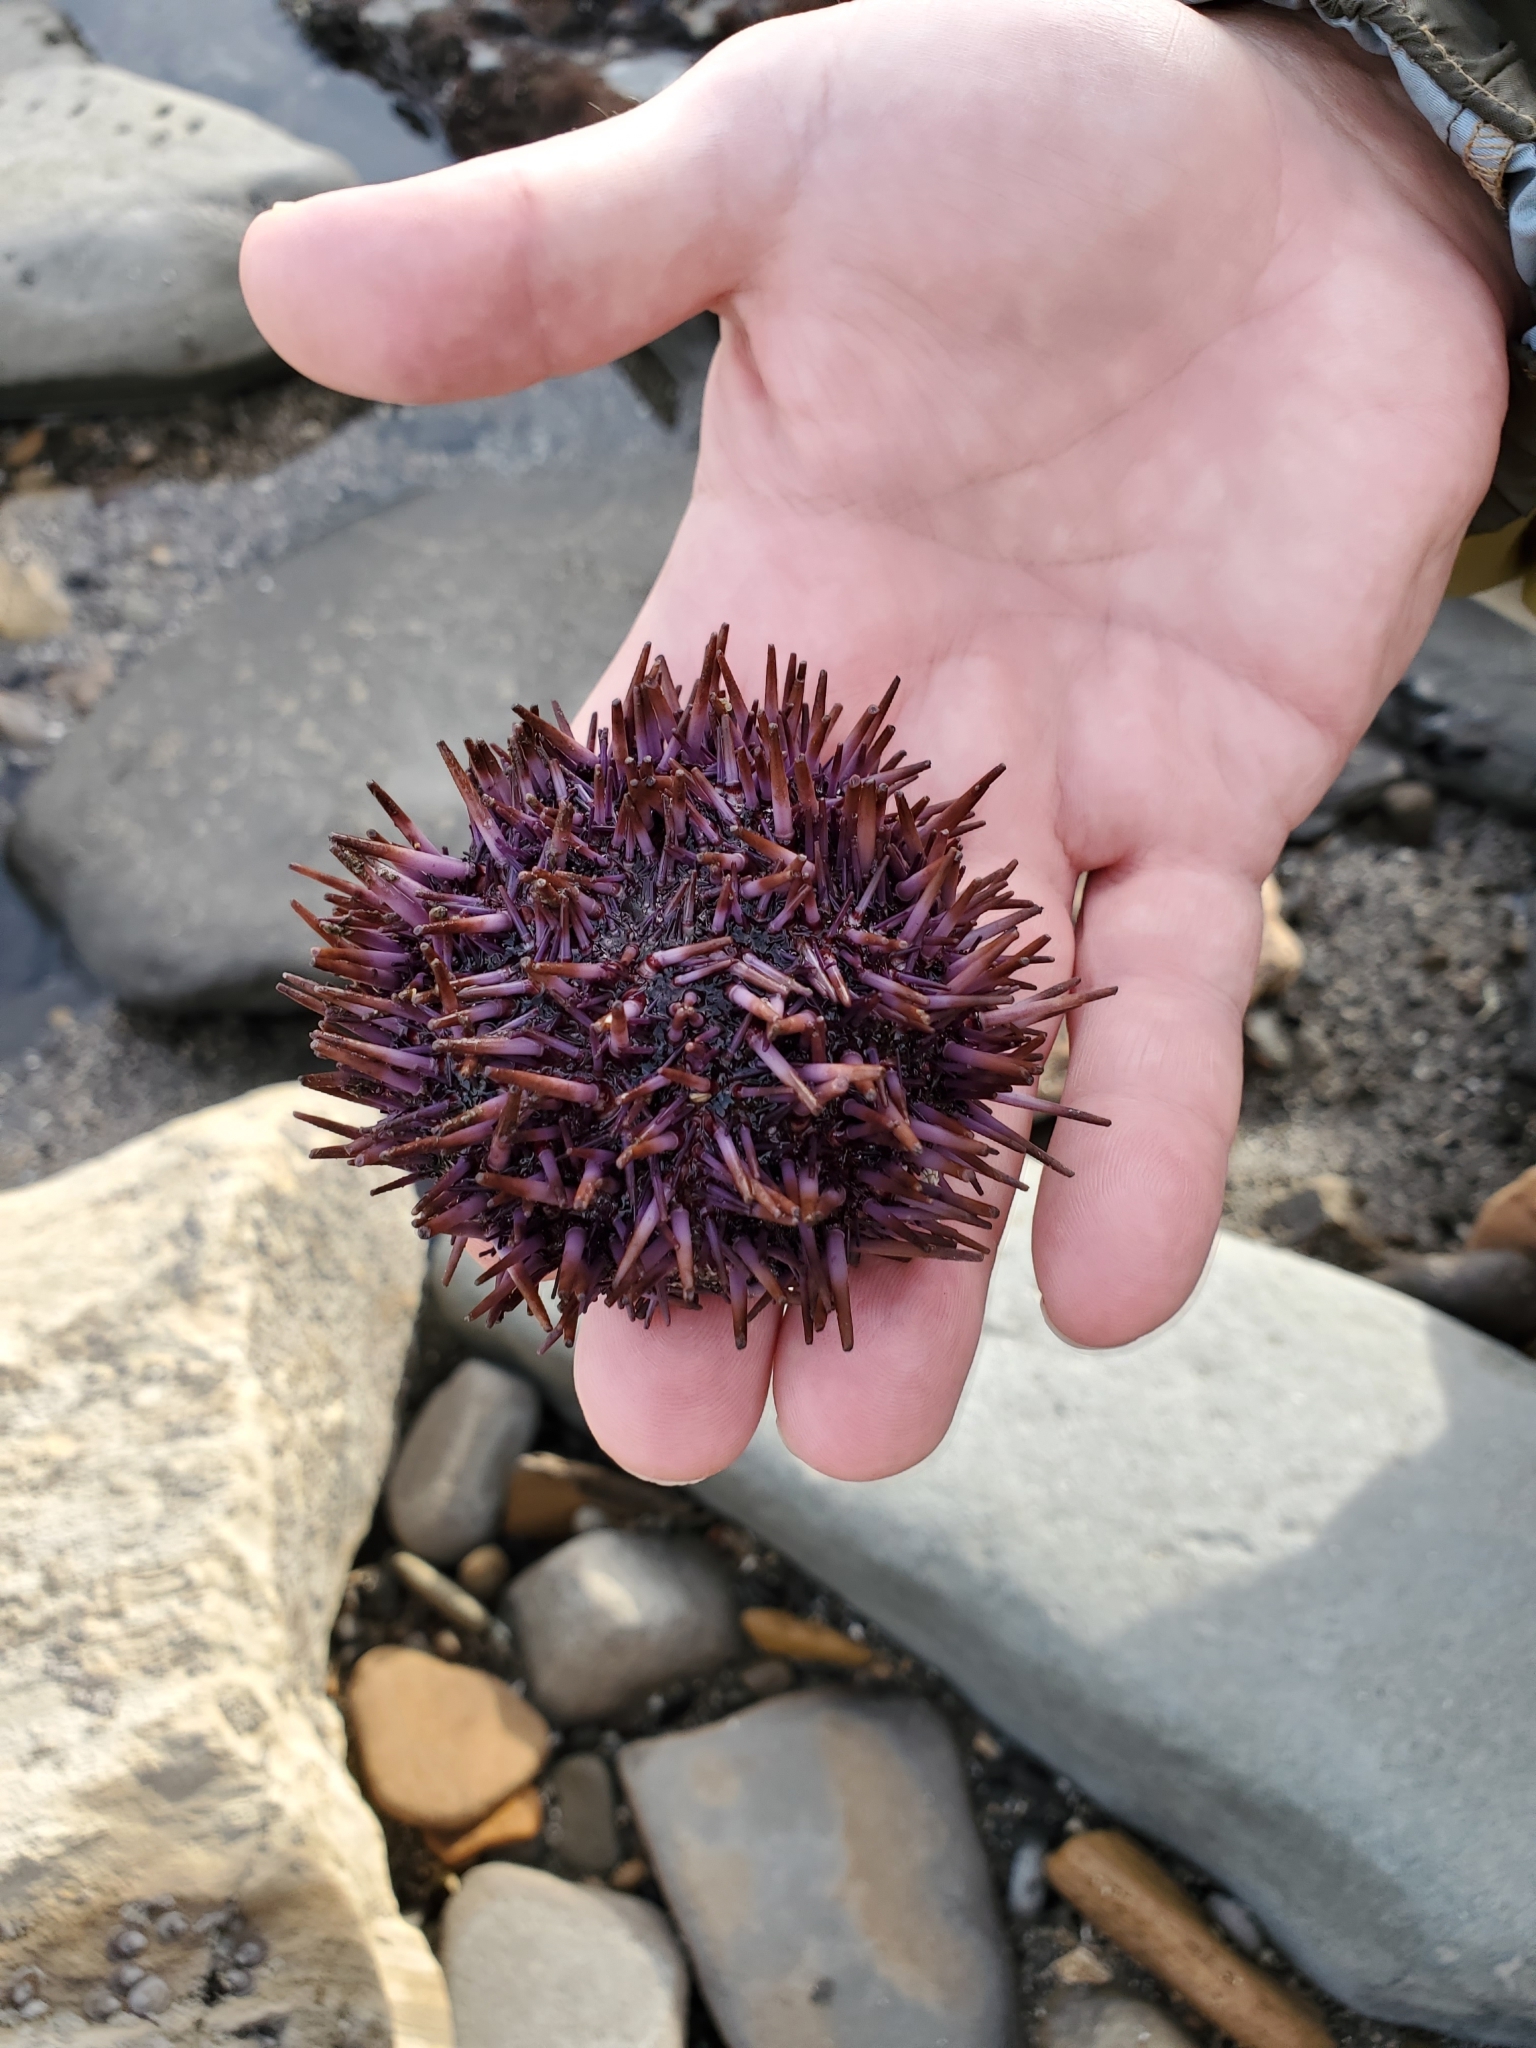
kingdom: Animalia
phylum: Echinodermata
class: Echinoidea
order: Camarodonta
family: Strongylocentrotidae
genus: Strongylocentrotus
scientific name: Strongylocentrotus purpuratus
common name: Purple sea urchin
